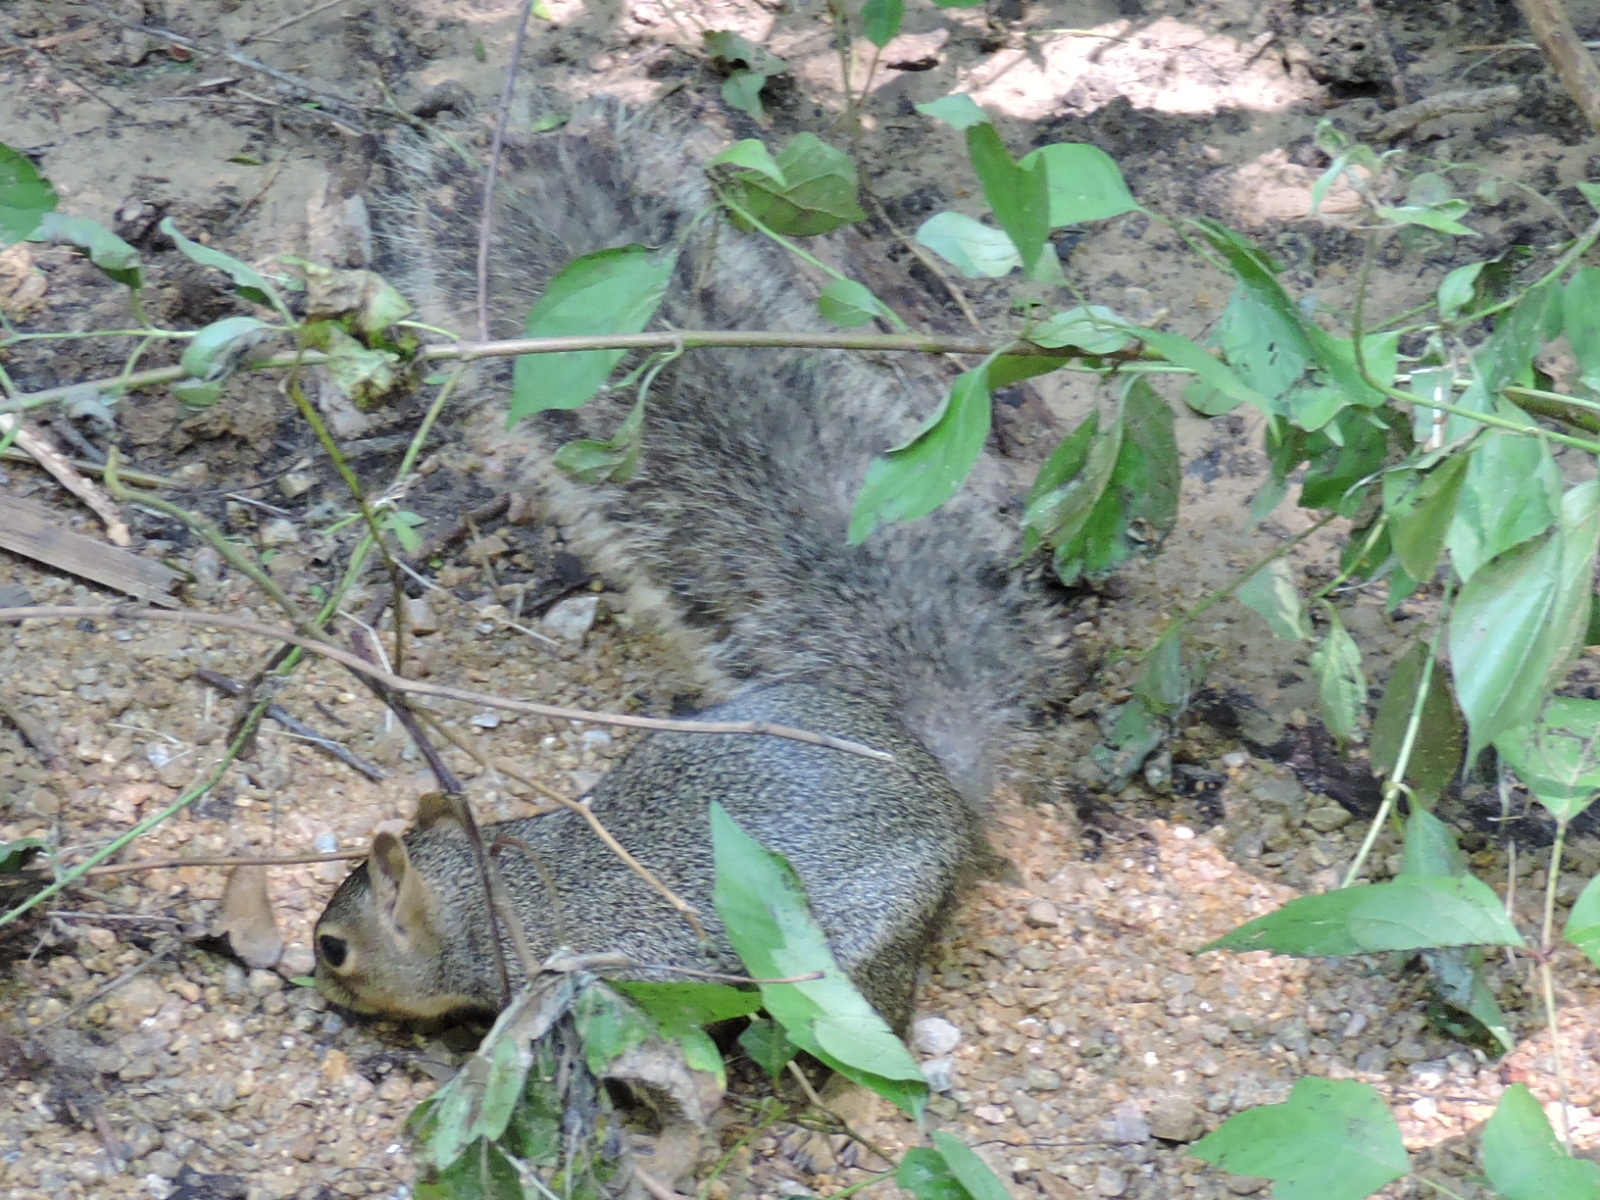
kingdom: Animalia
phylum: Chordata
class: Mammalia
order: Rodentia
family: Sciuridae
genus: Sciurus
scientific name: Sciurus niger
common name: Fox squirrel
